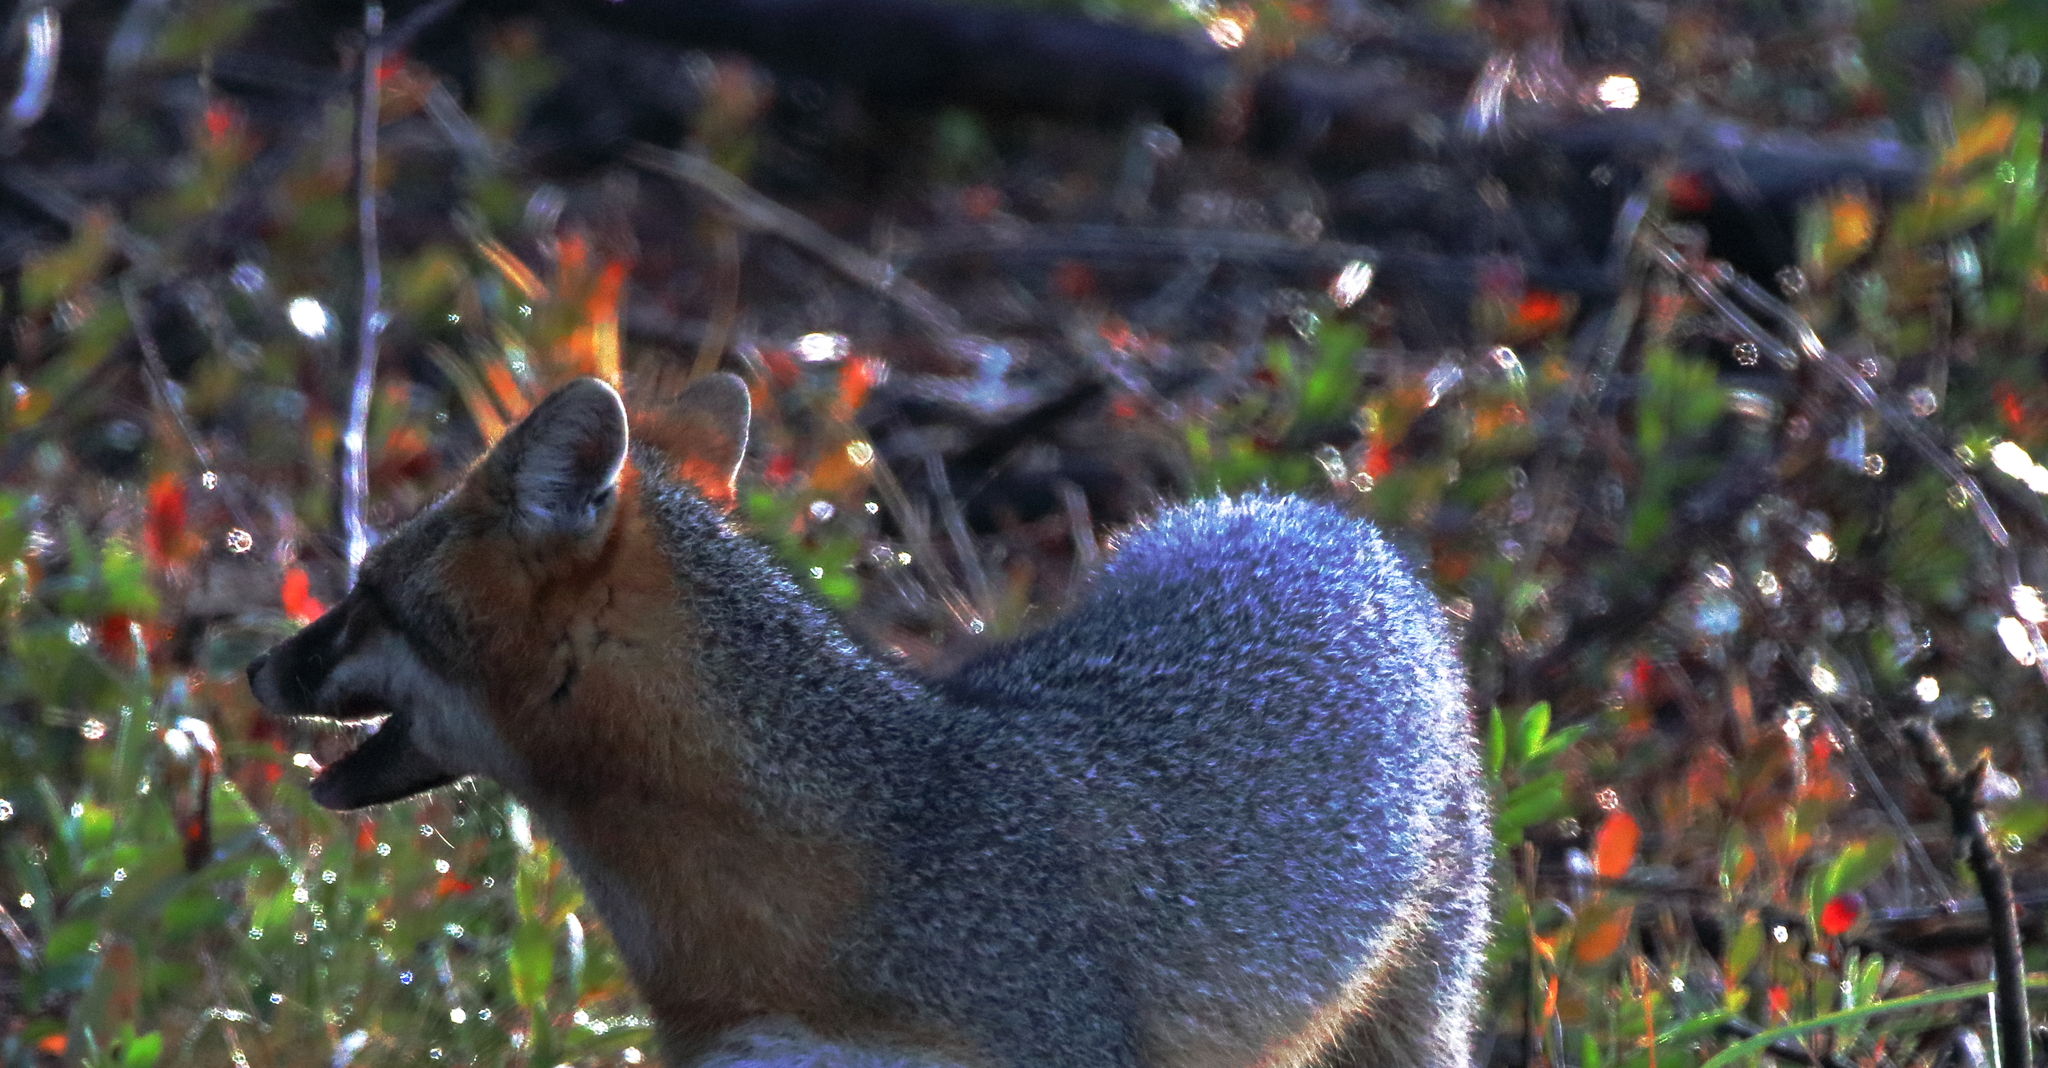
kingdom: Animalia
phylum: Chordata
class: Mammalia
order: Carnivora
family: Canidae
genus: Urocyon
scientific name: Urocyon cinereoargenteus
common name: Gray fox
